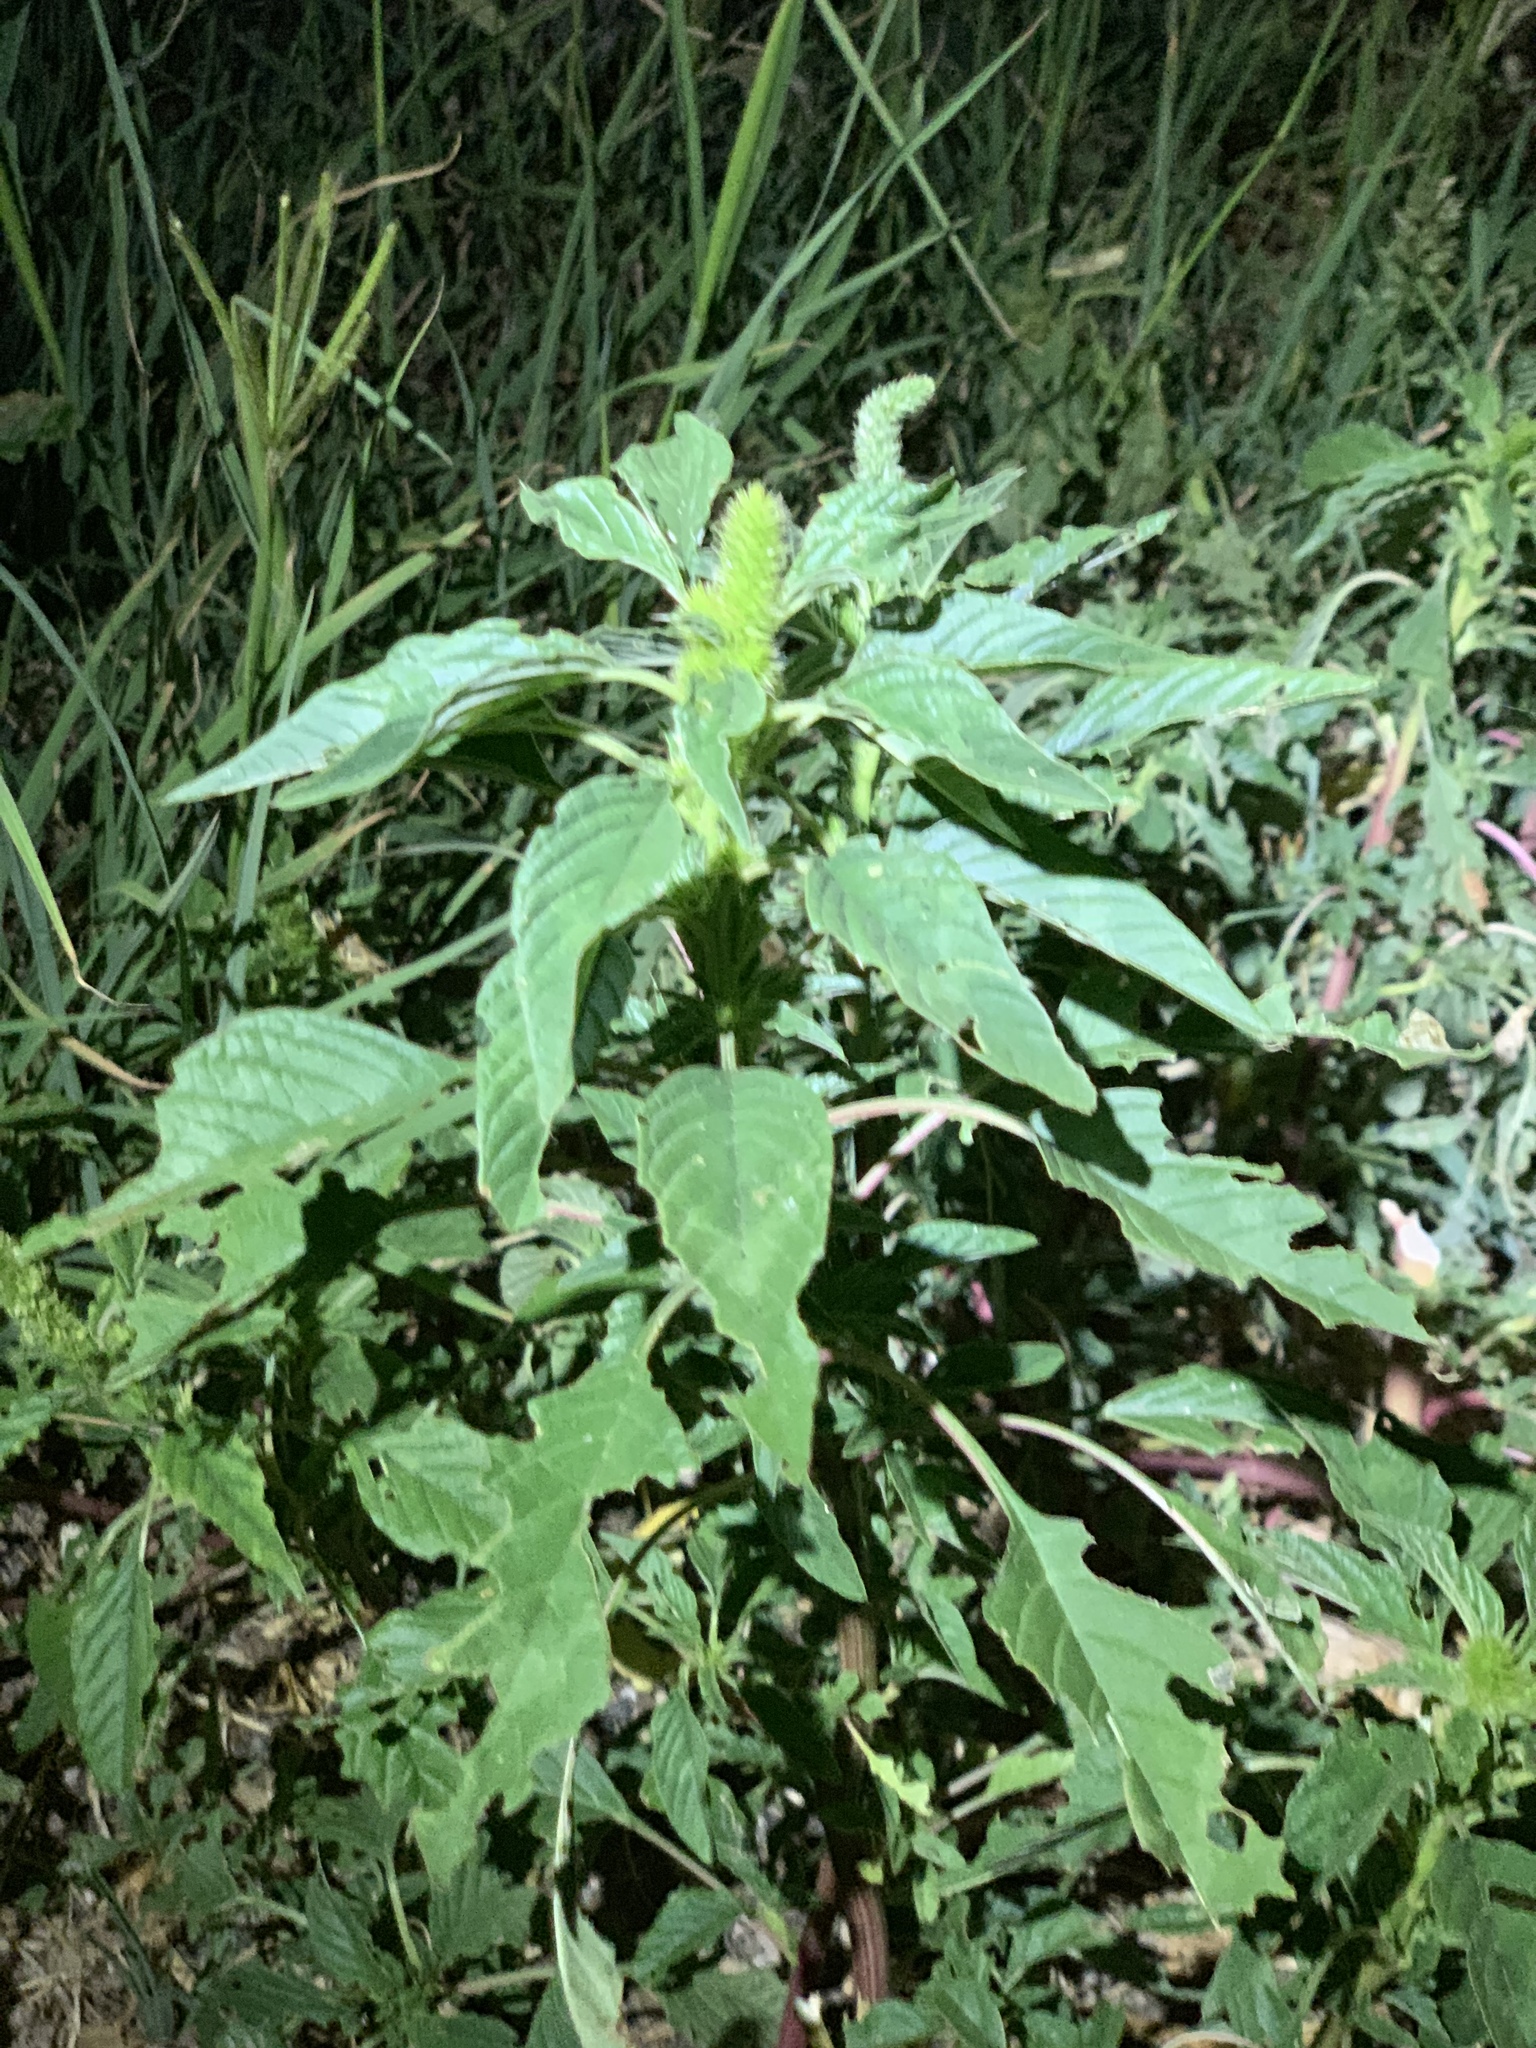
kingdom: Plantae
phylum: Tracheophyta
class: Magnoliopsida
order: Caryophyllales
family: Amaranthaceae
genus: Amaranthus
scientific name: Amaranthus palmeri
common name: Dioecious amaranth
